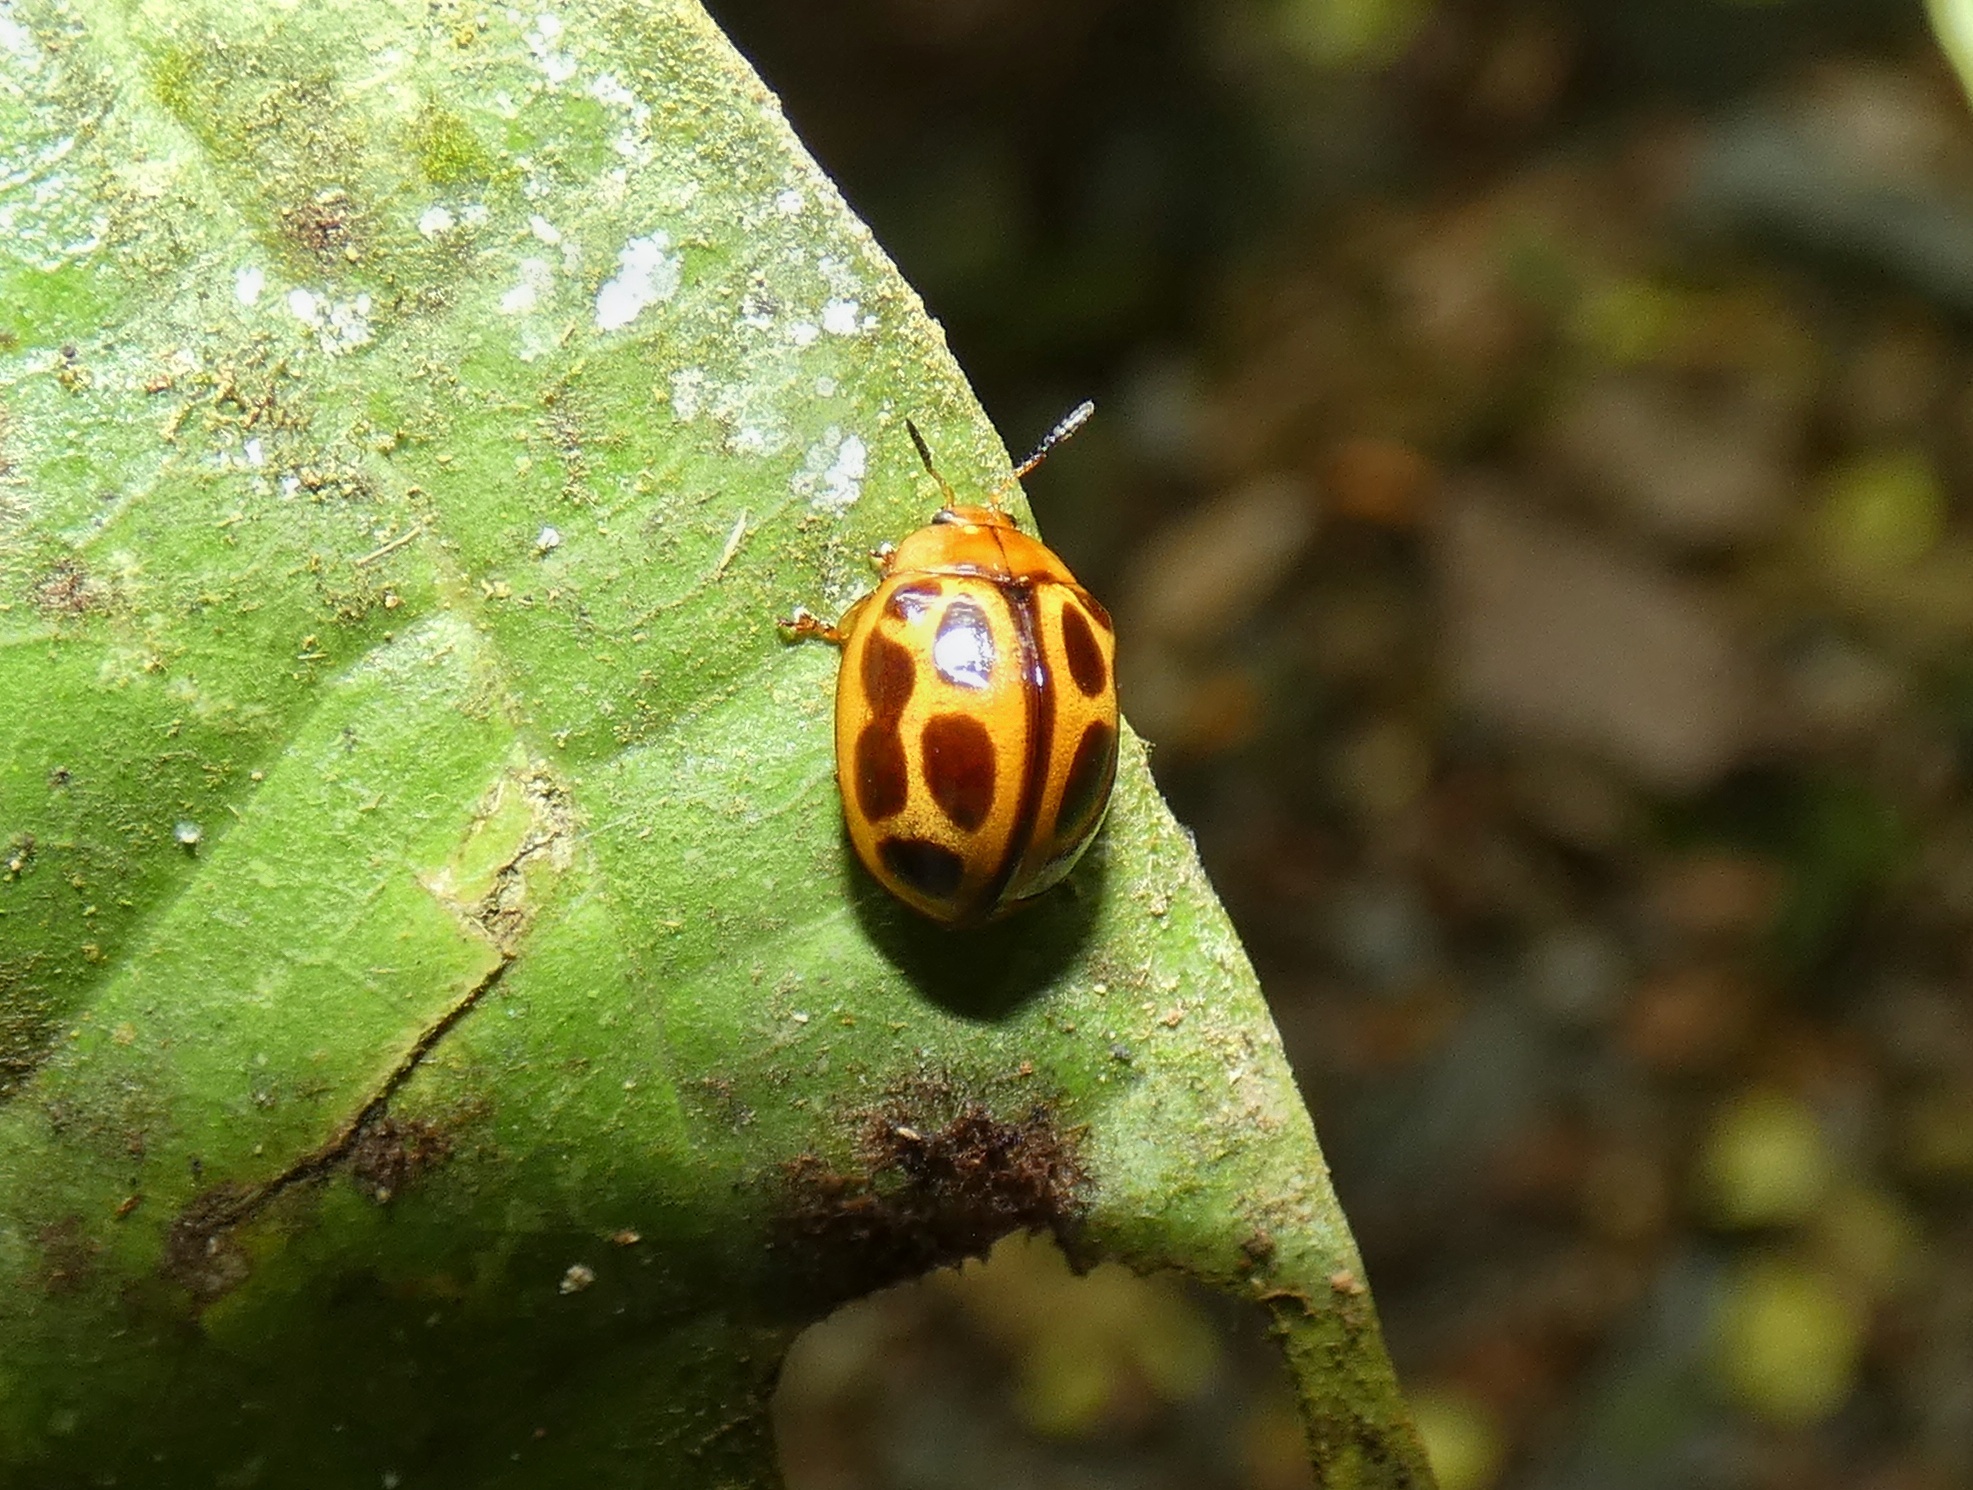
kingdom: Animalia
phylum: Arthropoda
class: Insecta
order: Coleoptera
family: Chrysomelidae
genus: Plagiodera
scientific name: Plagiodera
